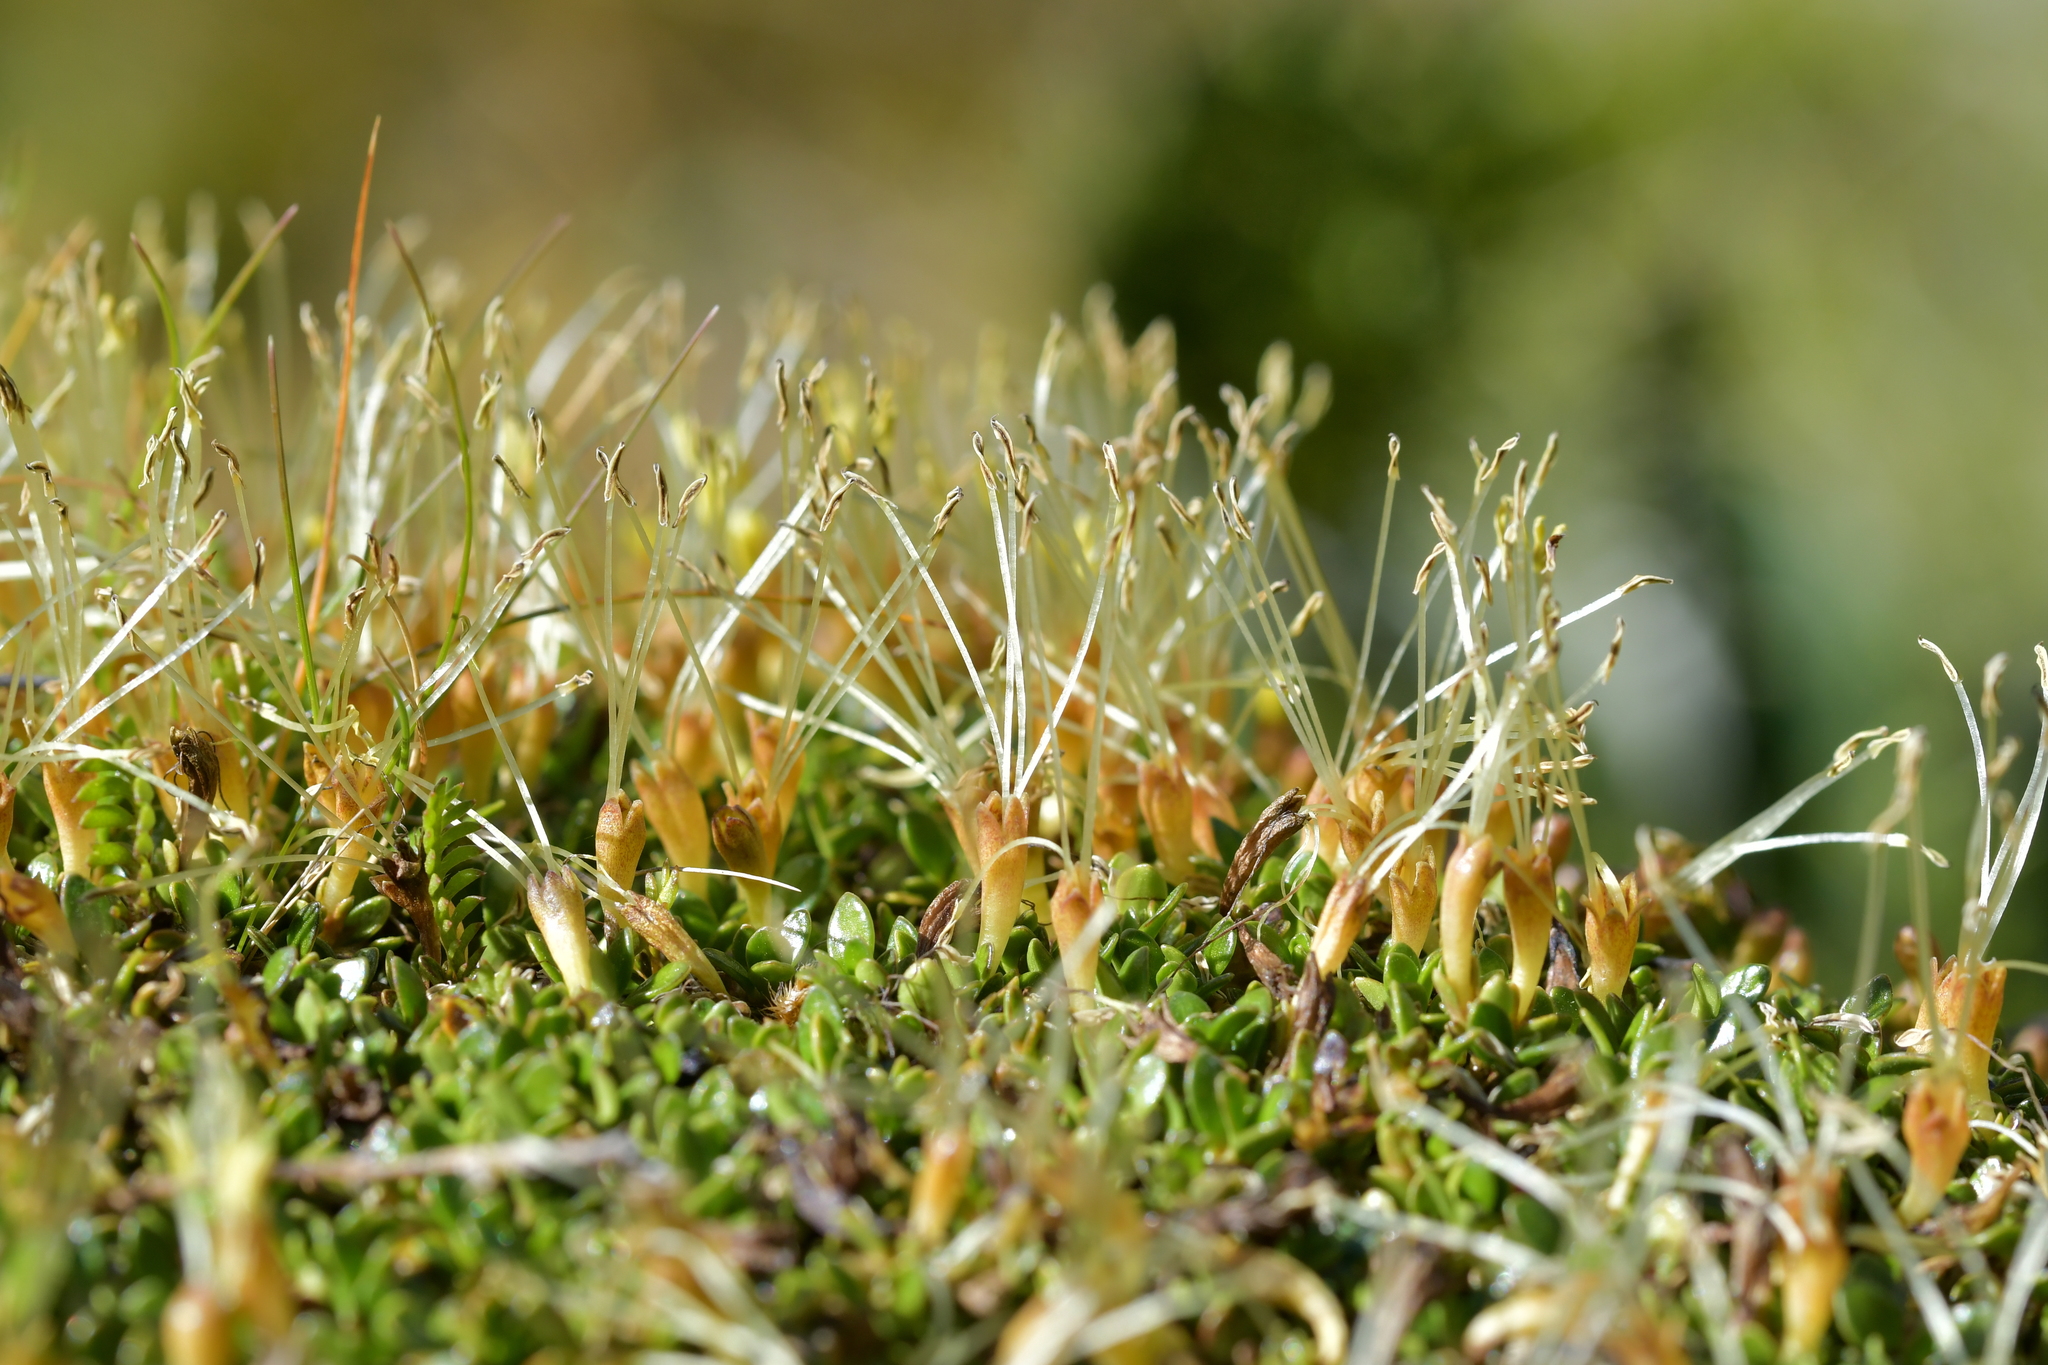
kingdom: Plantae
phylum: Tracheophyta
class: Magnoliopsida
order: Gentianales
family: Rubiaceae
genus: Coprosma
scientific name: Coprosma perpusilla
